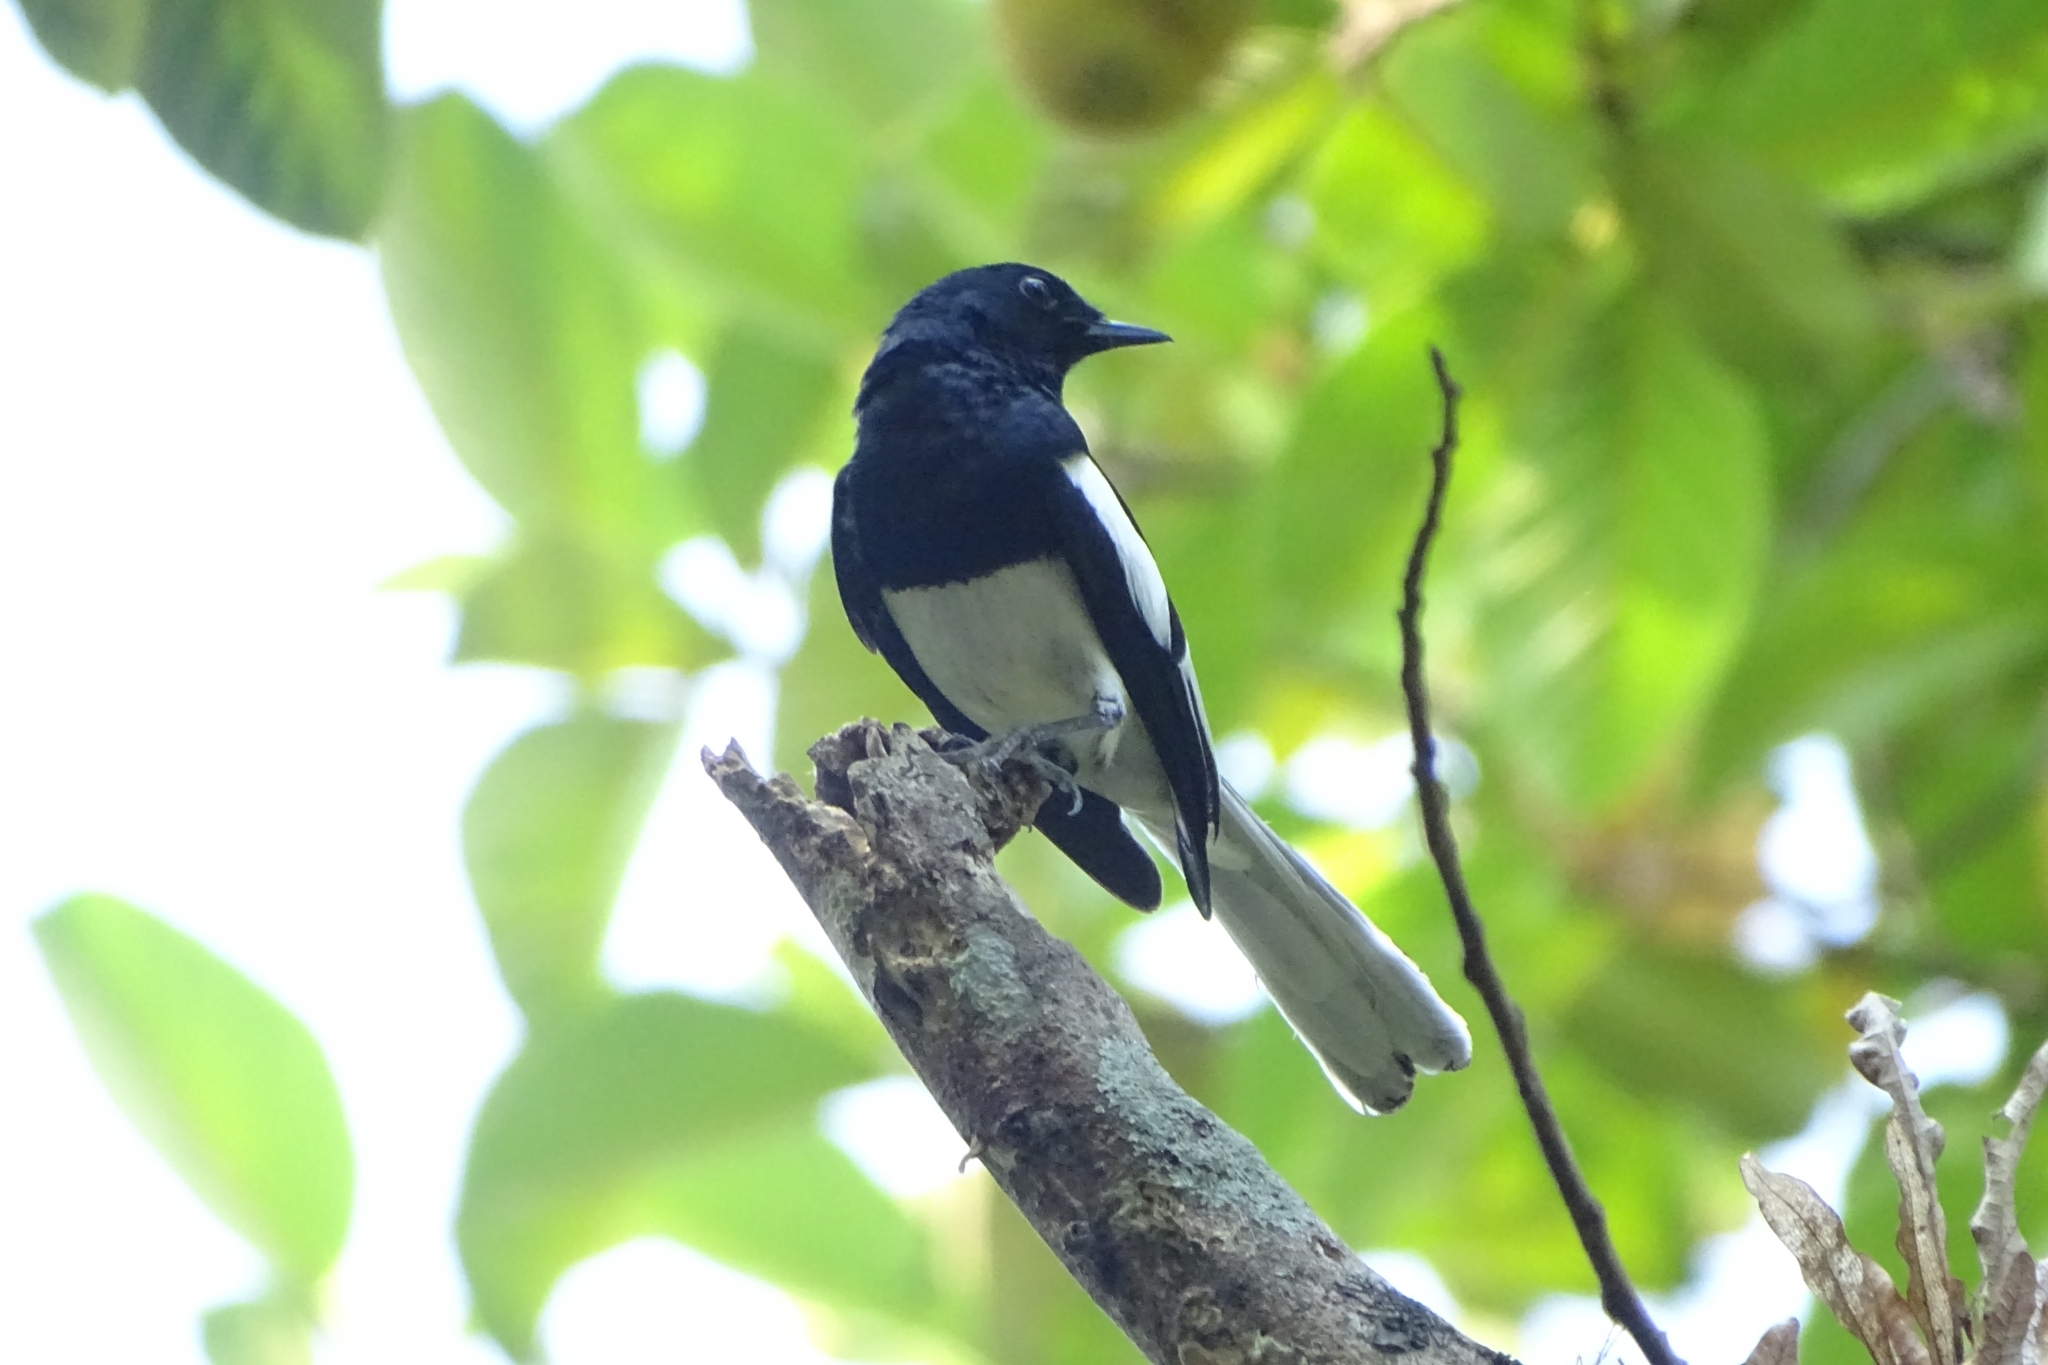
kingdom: Animalia
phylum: Chordata
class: Aves
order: Passeriformes
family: Muscicapidae
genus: Copsychus
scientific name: Copsychus saularis
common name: Oriental magpie-robin
